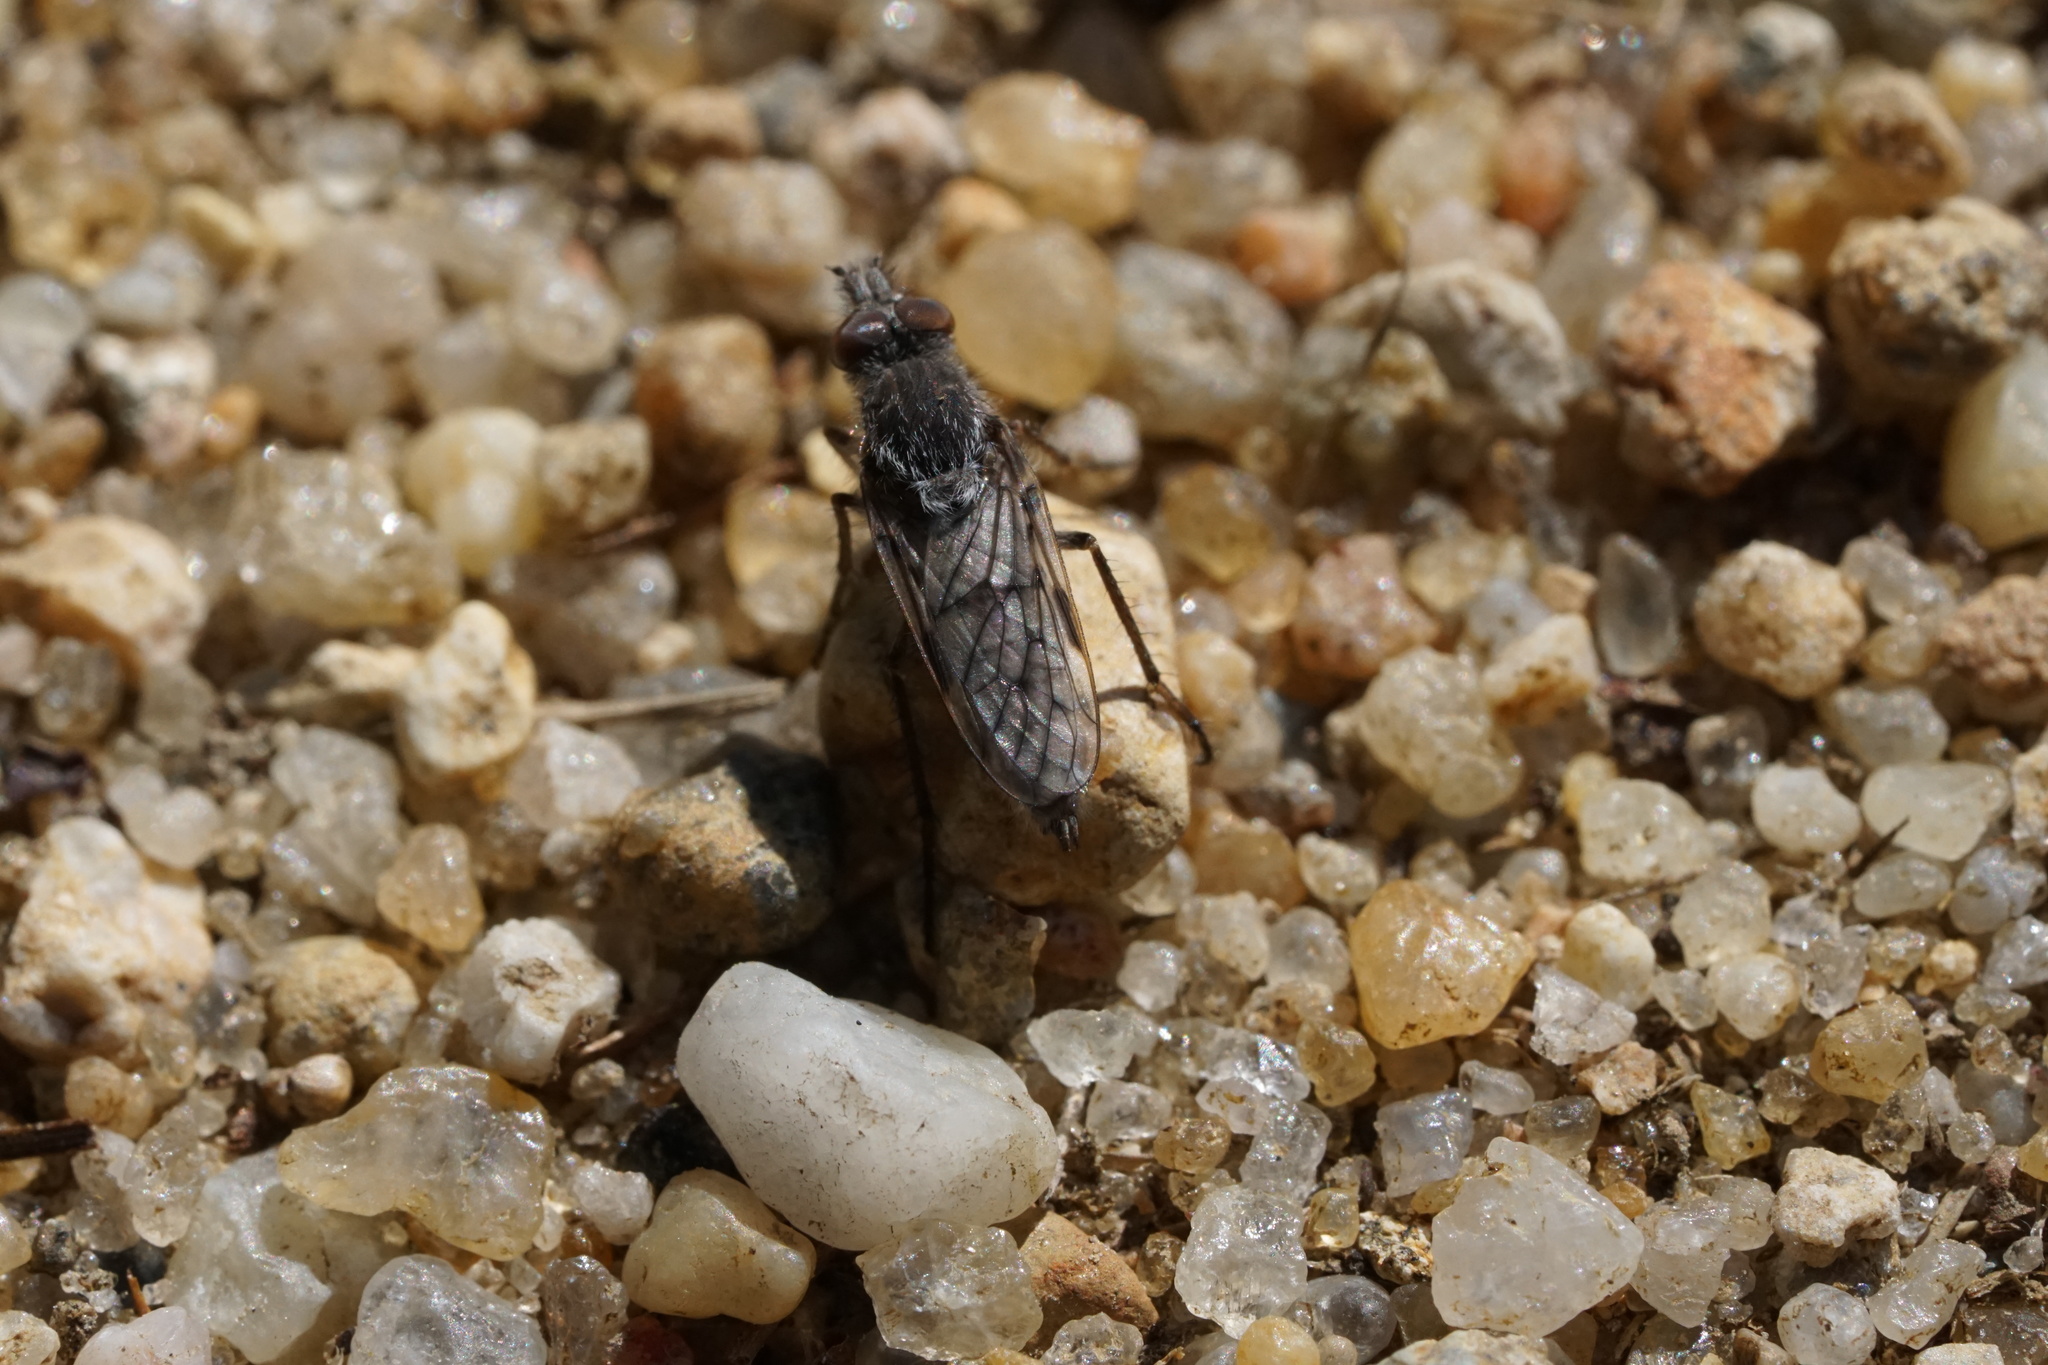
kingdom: Animalia
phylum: Arthropoda
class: Insecta
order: Diptera
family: Therevidae
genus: Tabuda
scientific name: Tabuda varia
